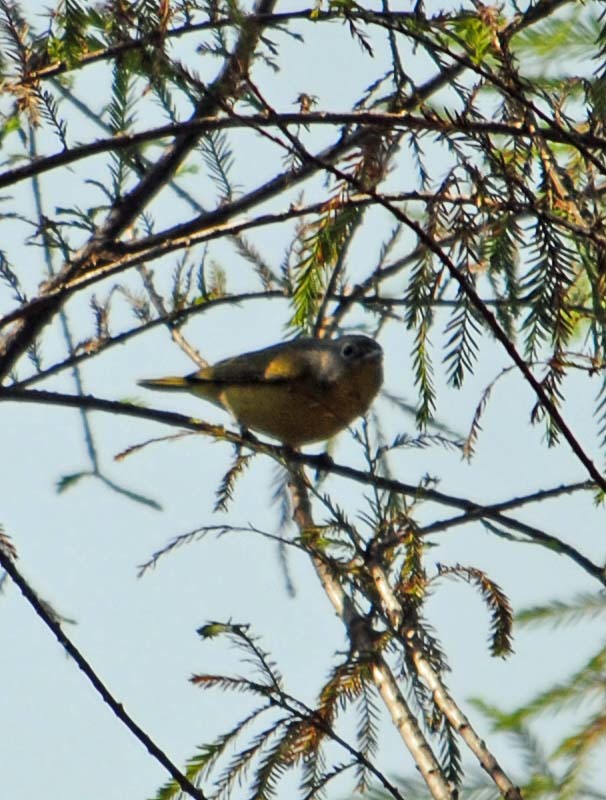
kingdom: Animalia
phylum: Chordata
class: Aves
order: Passeriformes
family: Parulidae
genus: Leiothlypis
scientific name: Leiothlypis ruficapilla
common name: Nashville warbler
